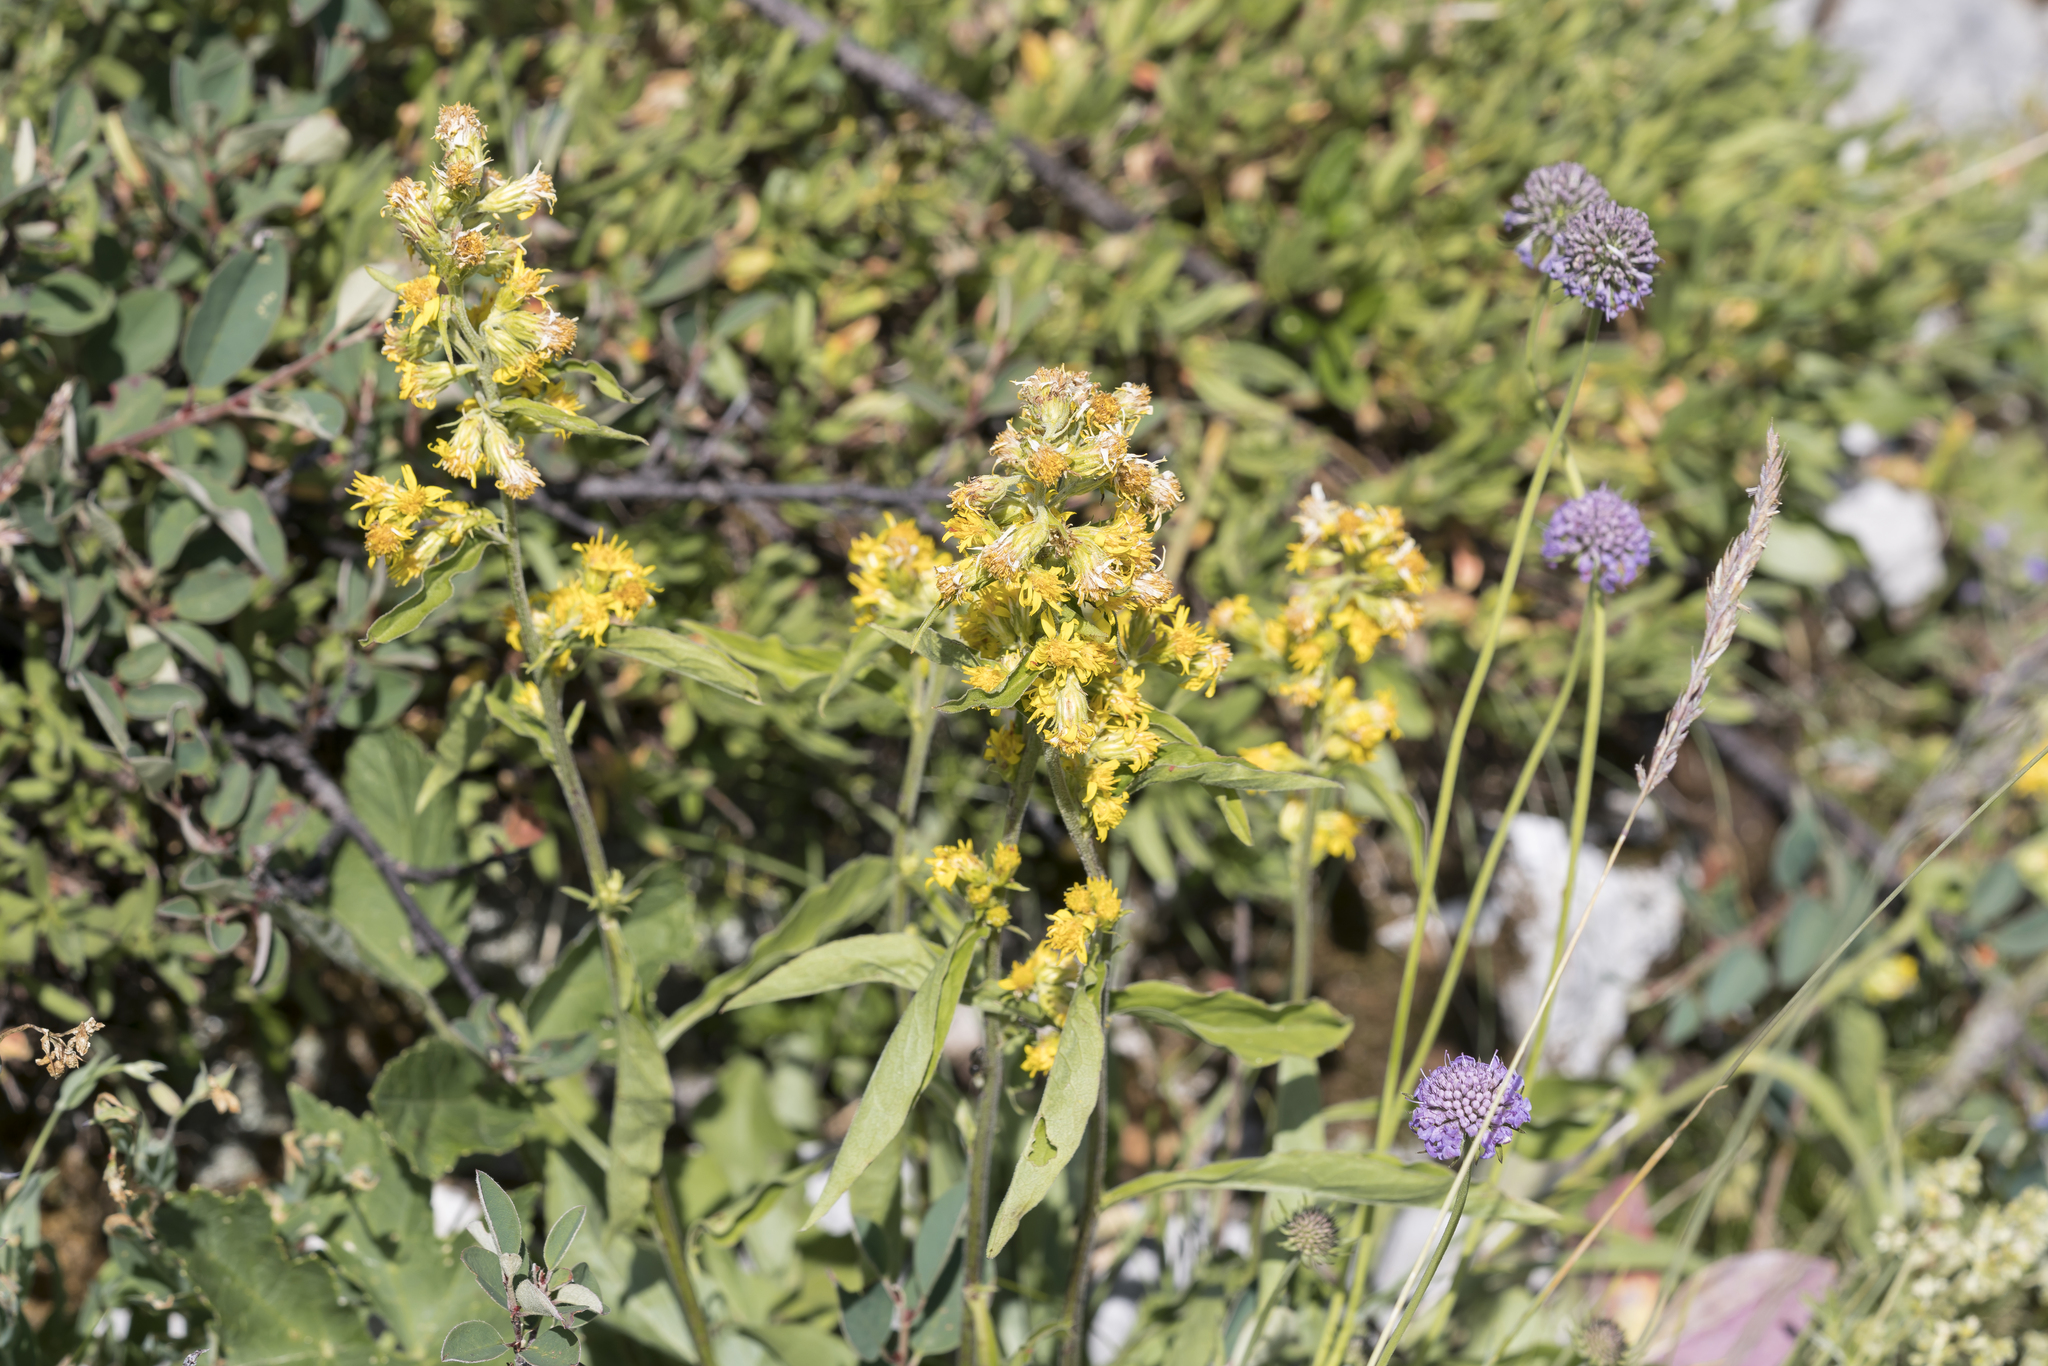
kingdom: Plantae
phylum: Tracheophyta
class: Magnoliopsida
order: Asterales
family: Asteraceae
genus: Solidago
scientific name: Solidago virgaurea
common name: Goldenrod
